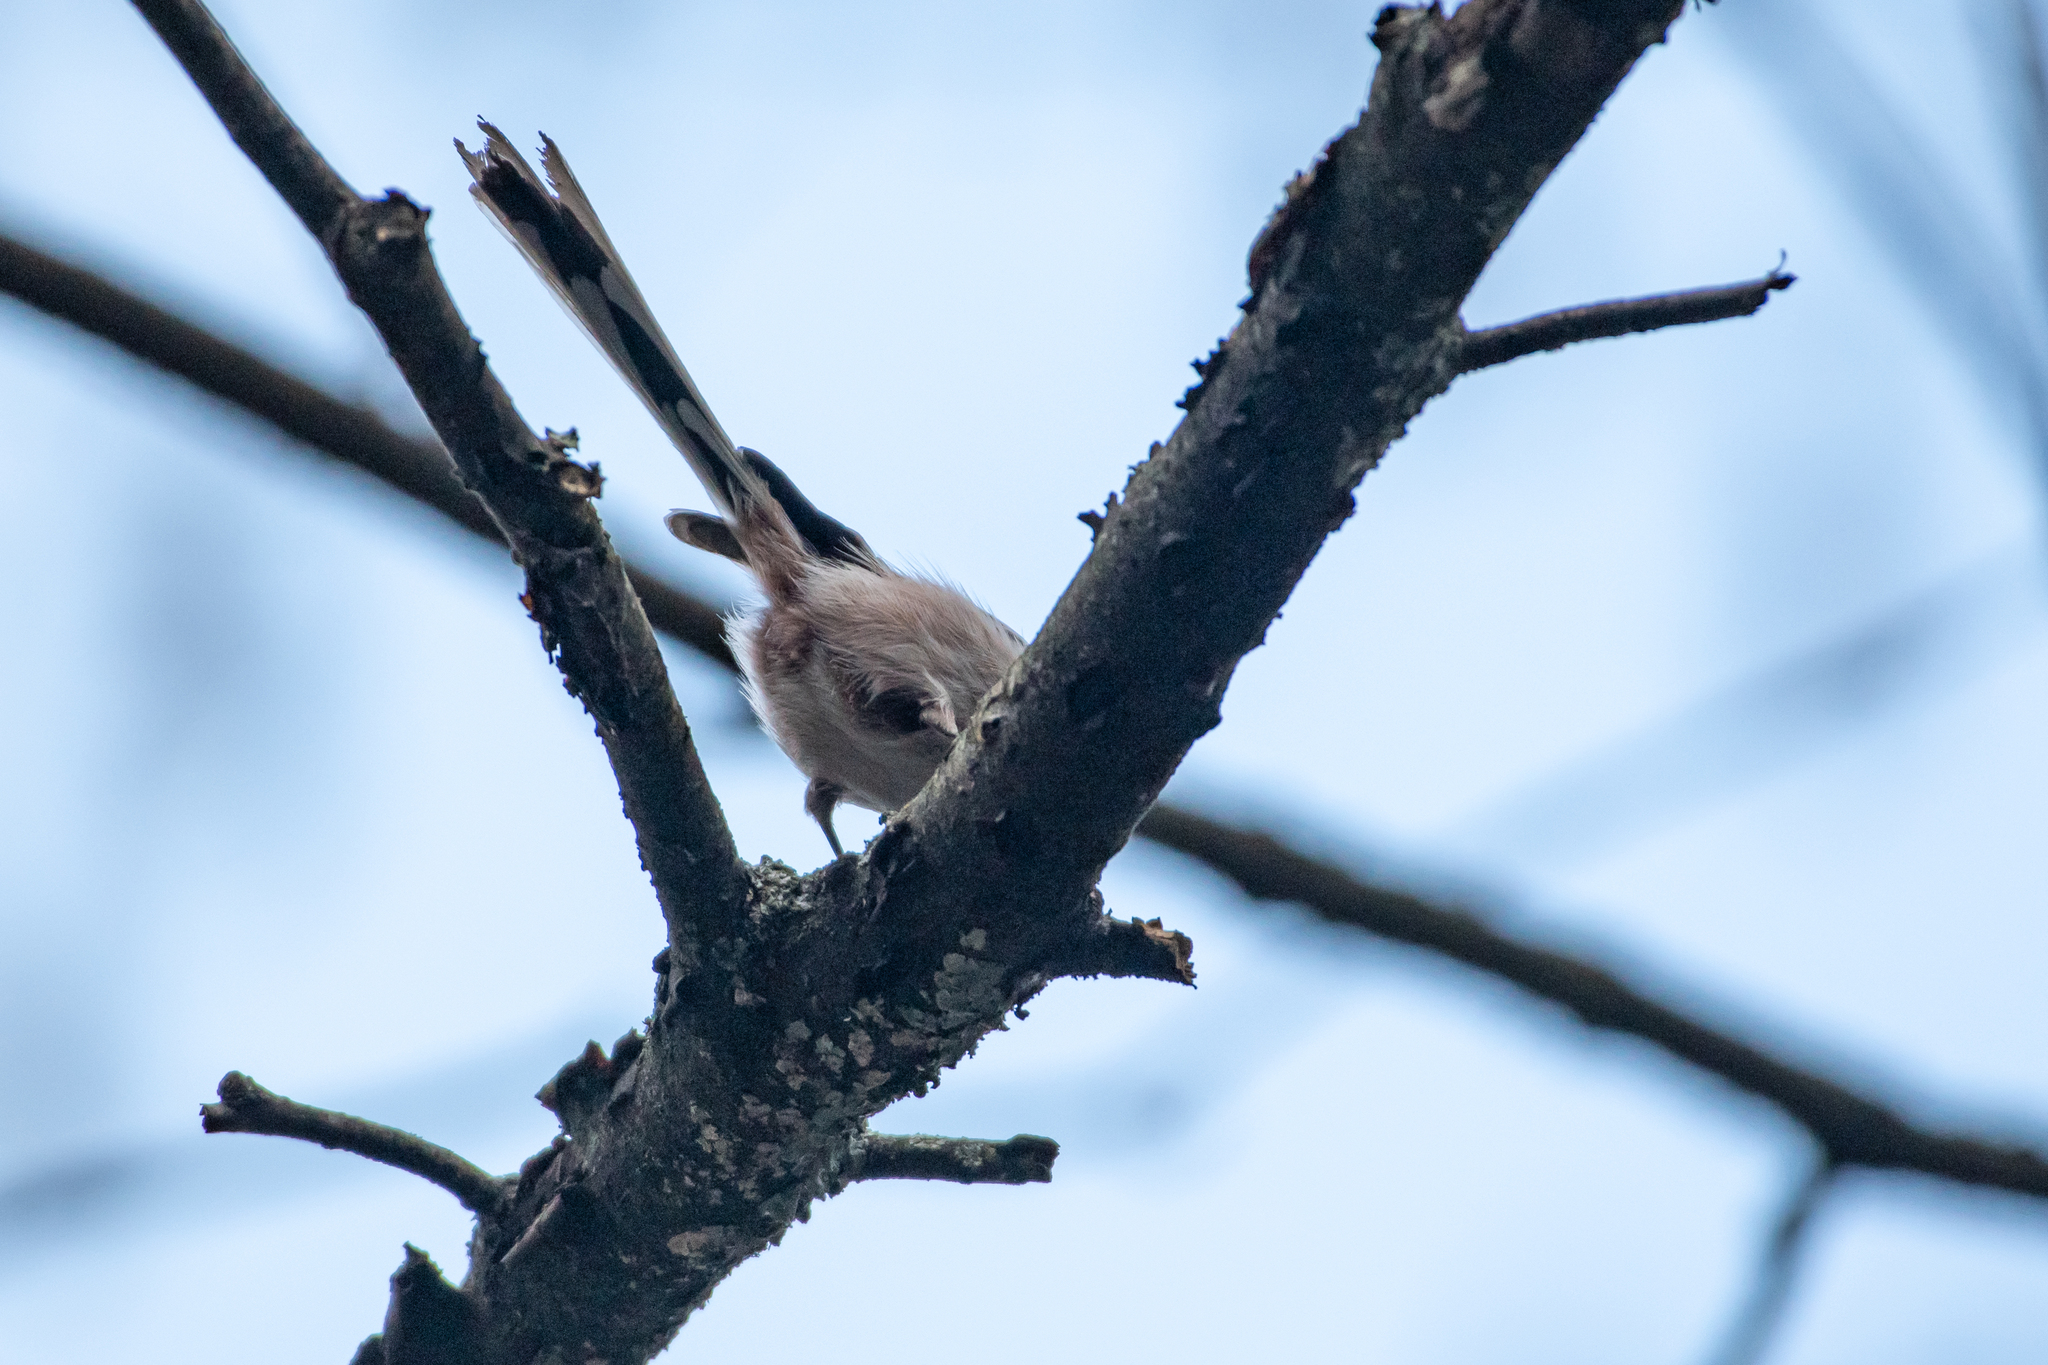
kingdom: Animalia
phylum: Chordata
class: Aves
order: Passeriformes
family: Aegithalidae
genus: Aegithalos
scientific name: Aegithalos caudatus
